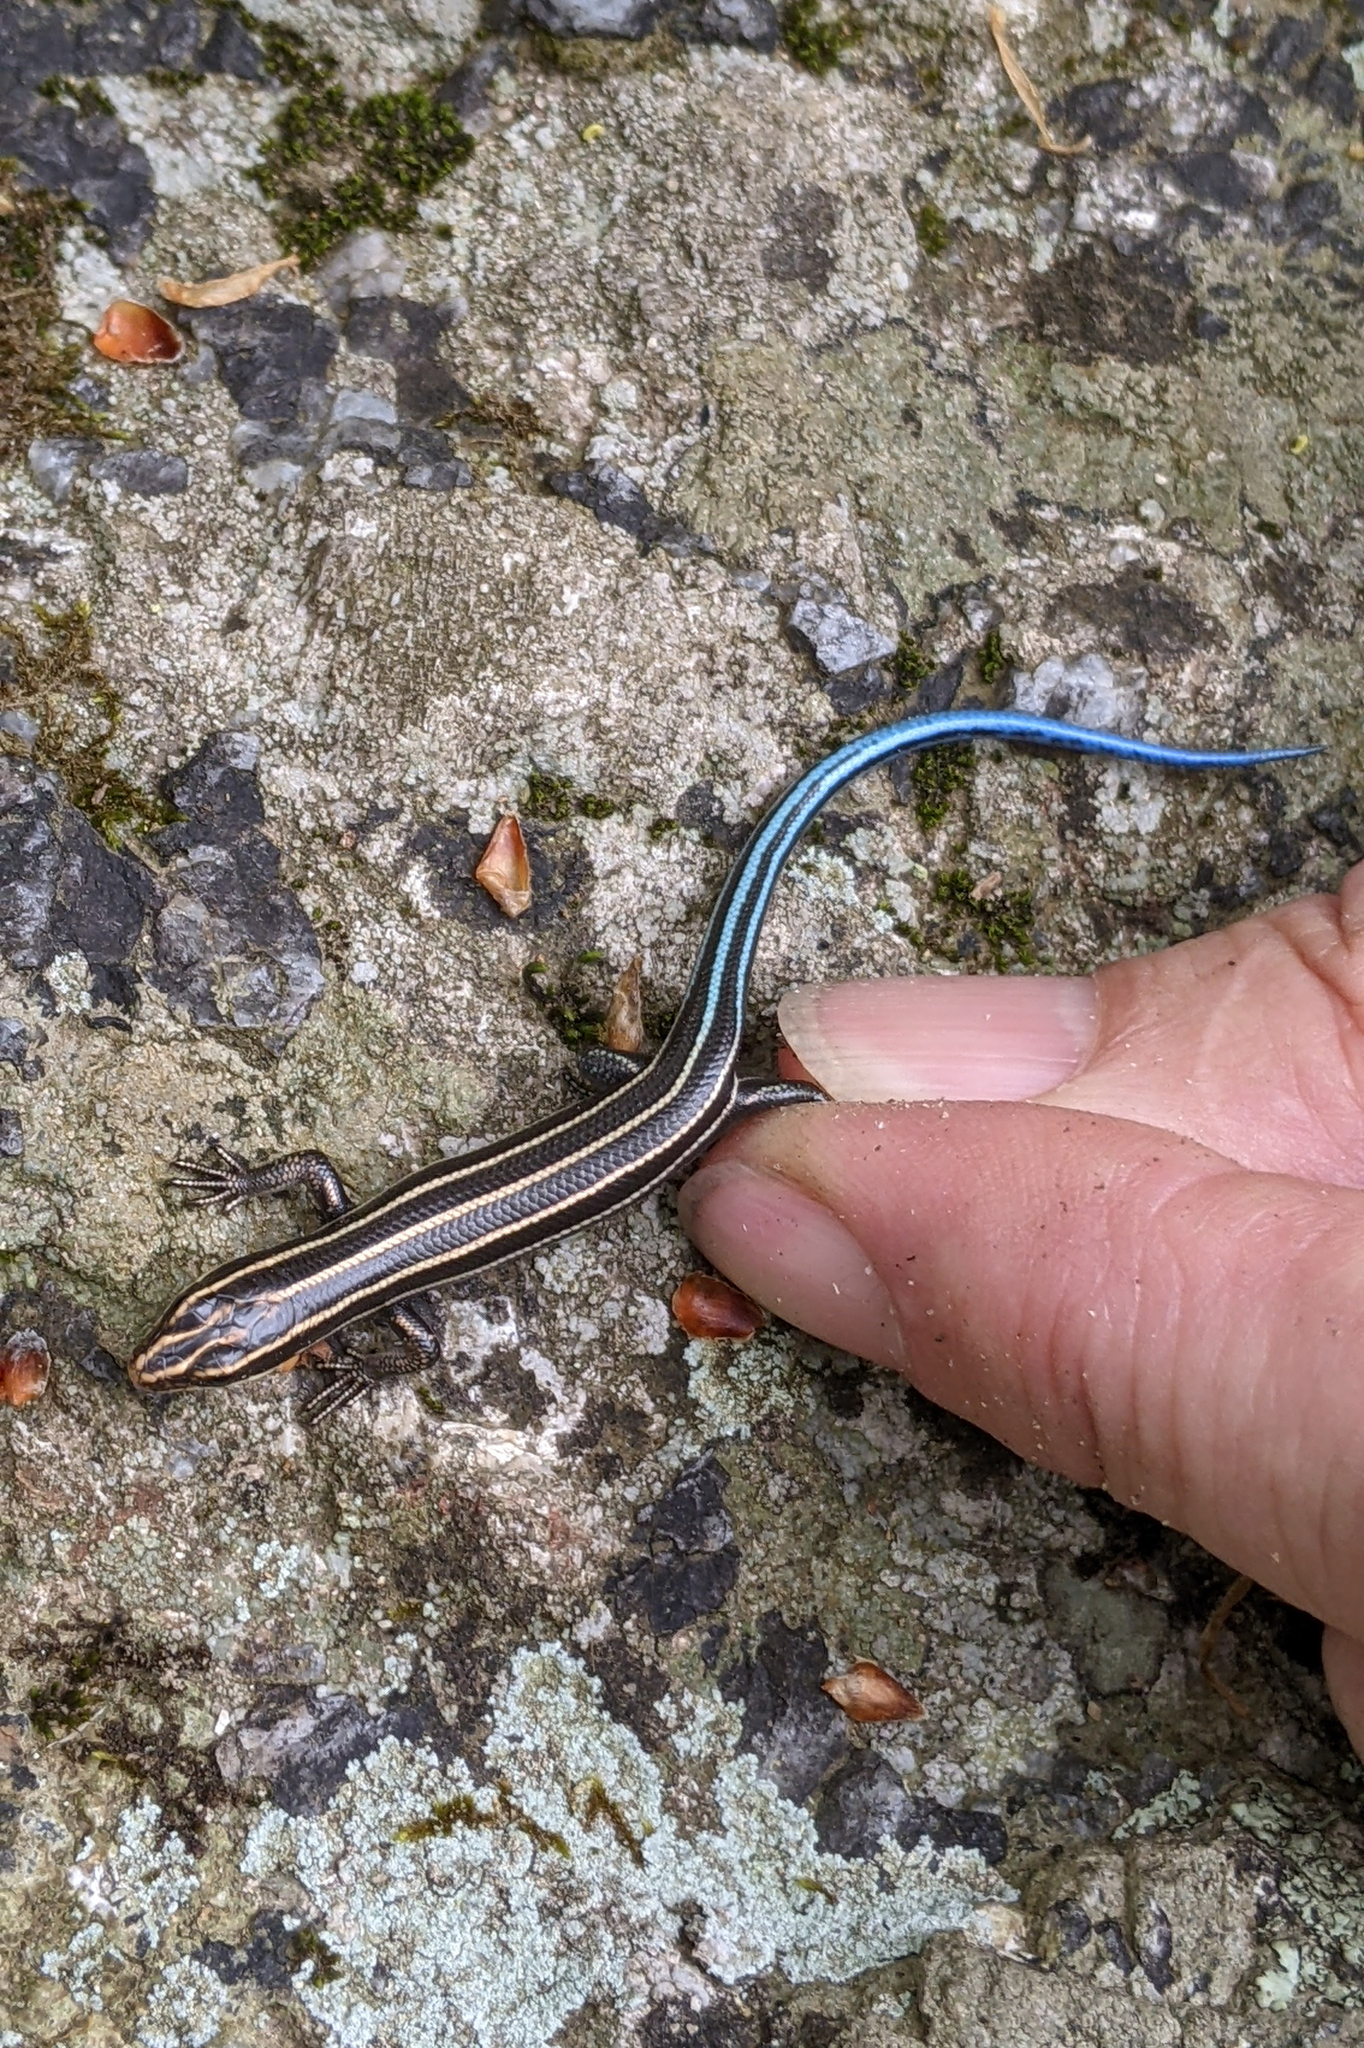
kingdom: Animalia
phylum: Chordata
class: Squamata
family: Scincidae
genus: Plestiodon
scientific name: Plestiodon fasciatus
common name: Five-lined skink
